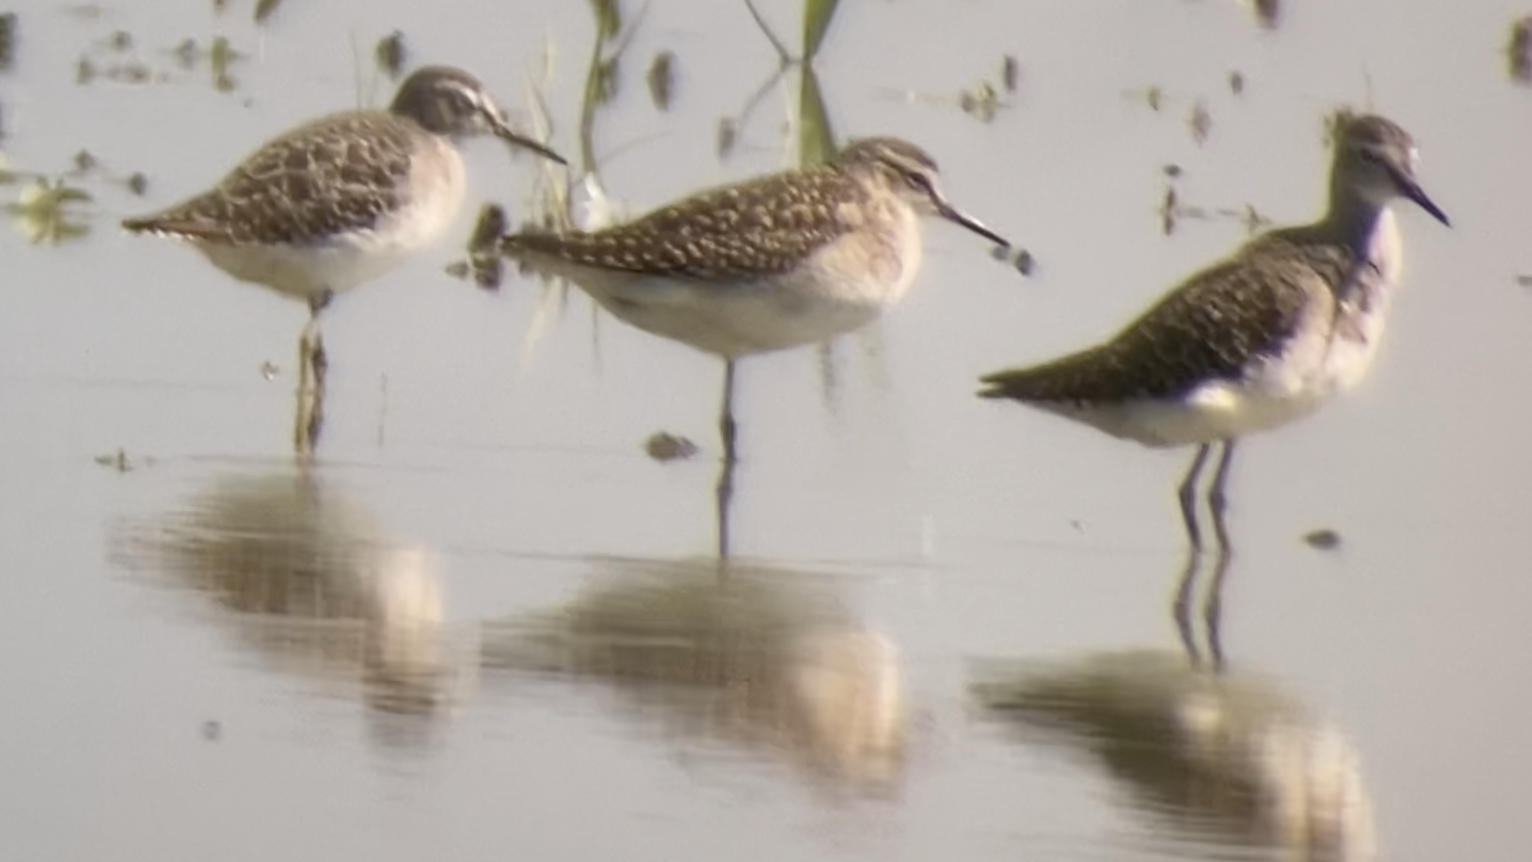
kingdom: Animalia
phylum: Chordata
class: Aves
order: Charadriiformes
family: Scolopacidae
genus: Tringa
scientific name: Tringa glareola
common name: Wood sandpiper
